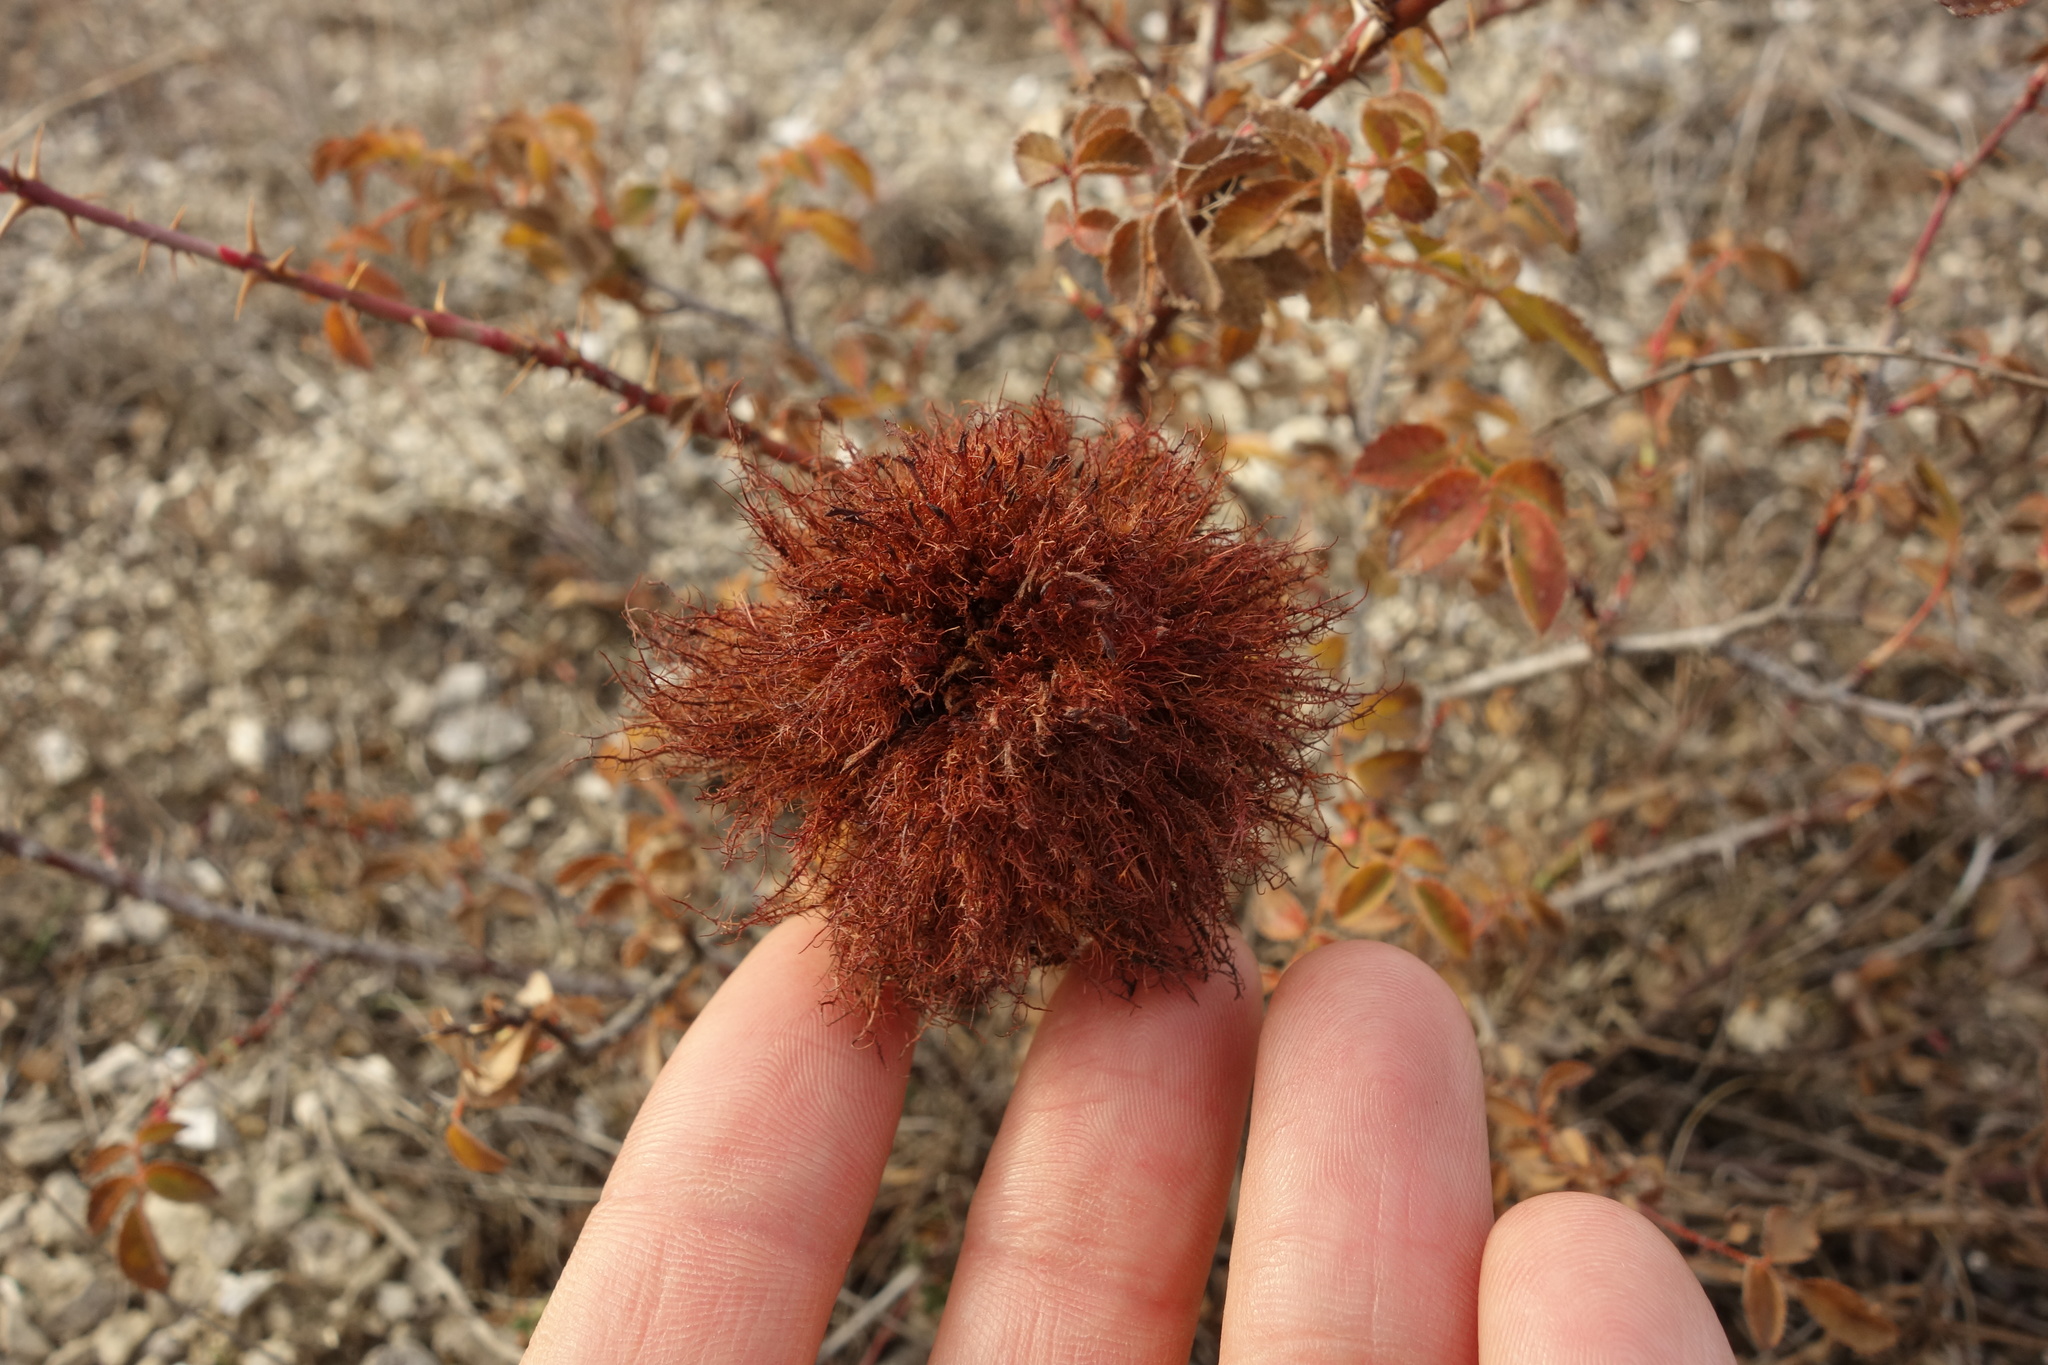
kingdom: Animalia
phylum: Arthropoda
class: Insecta
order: Hymenoptera
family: Cynipidae
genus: Diplolepis
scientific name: Diplolepis rosae
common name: Bedeguar gall
